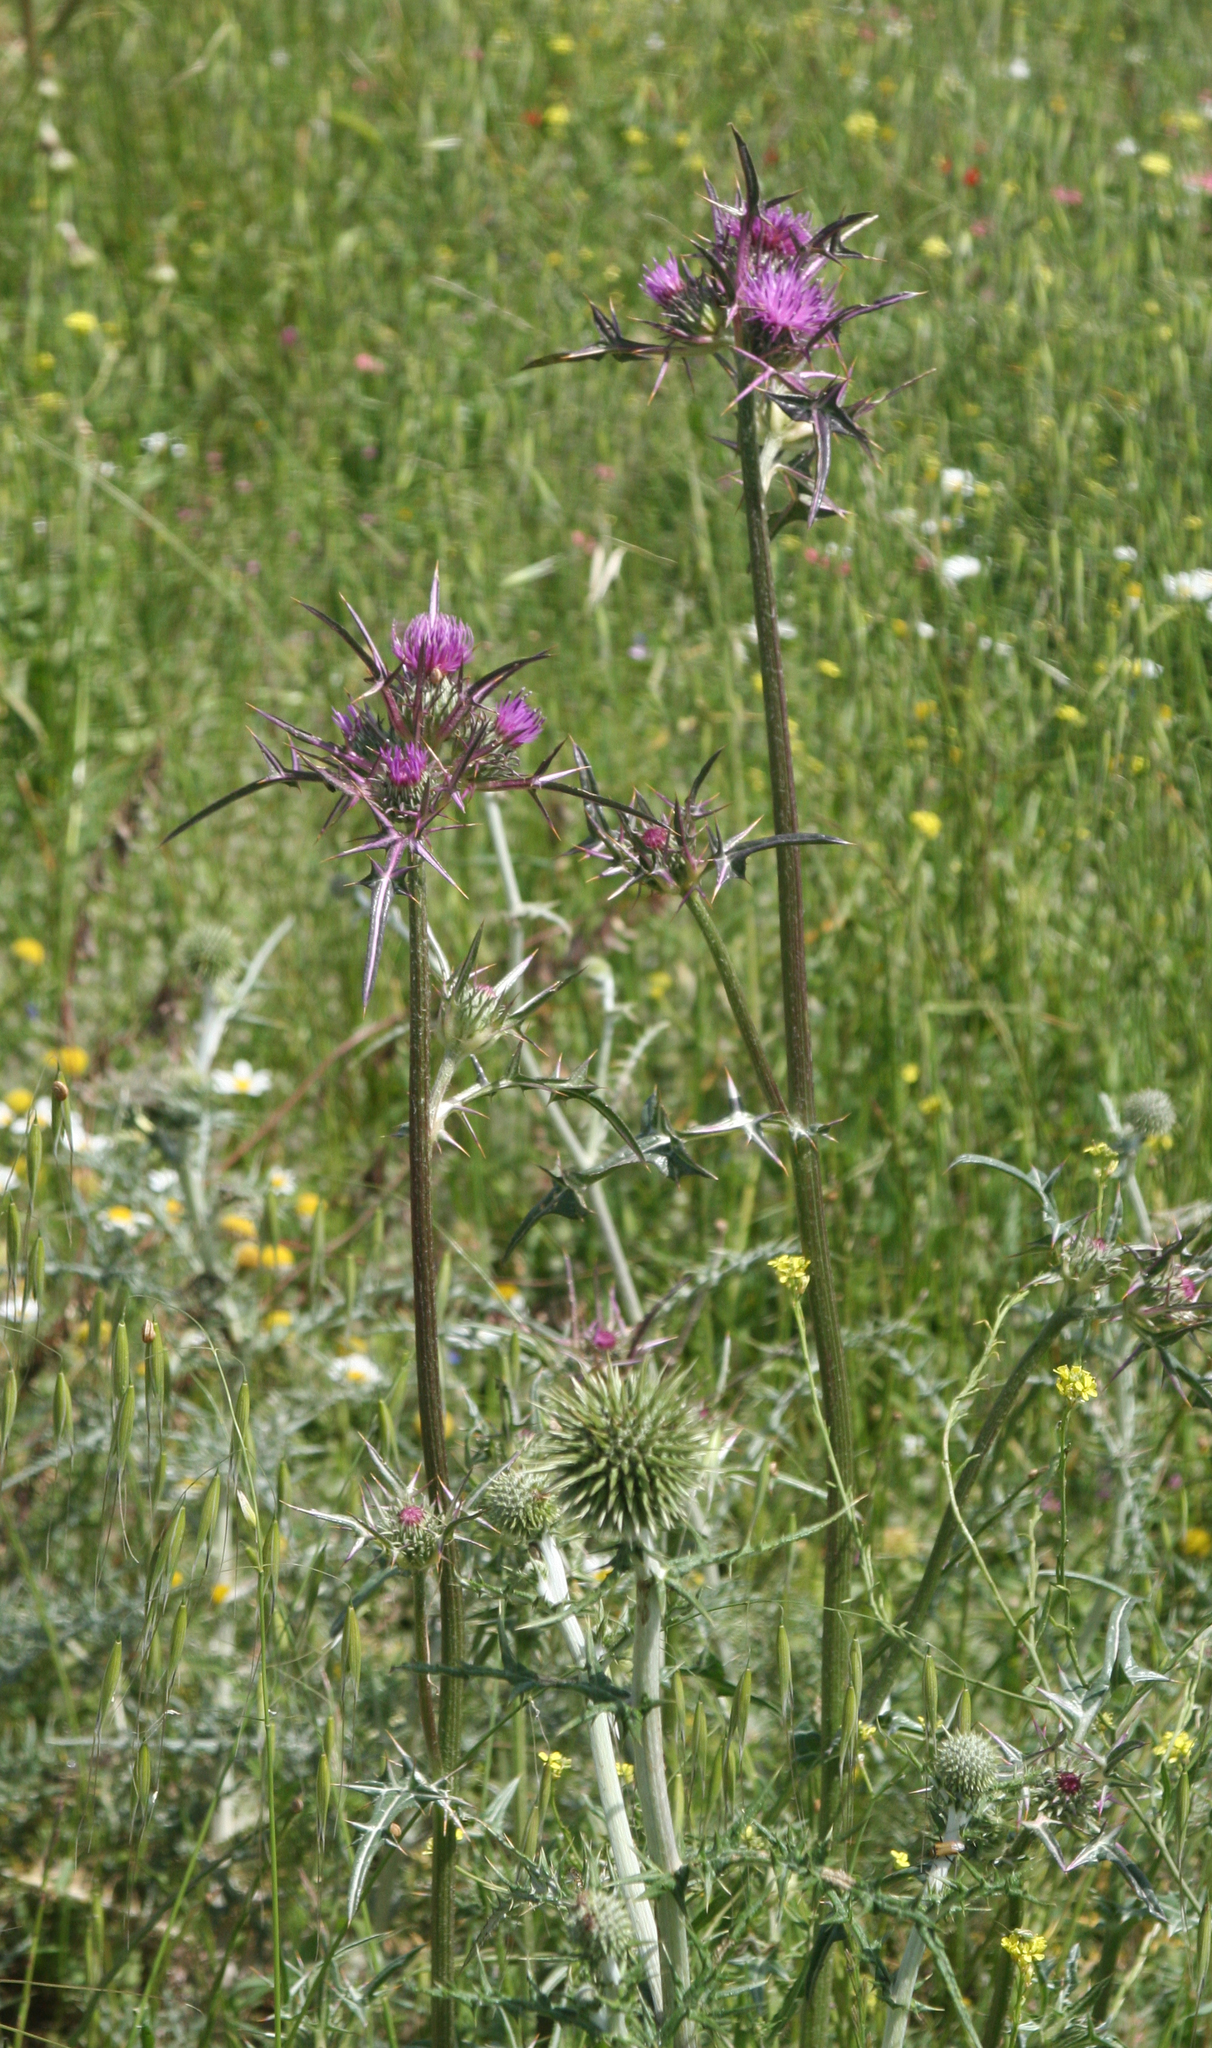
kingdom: Plantae
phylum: Tracheophyta
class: Magnoliopsida
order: Asterales
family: Asteraceae
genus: Notobasis
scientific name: Notobasis syriaca
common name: Syrian thistle
